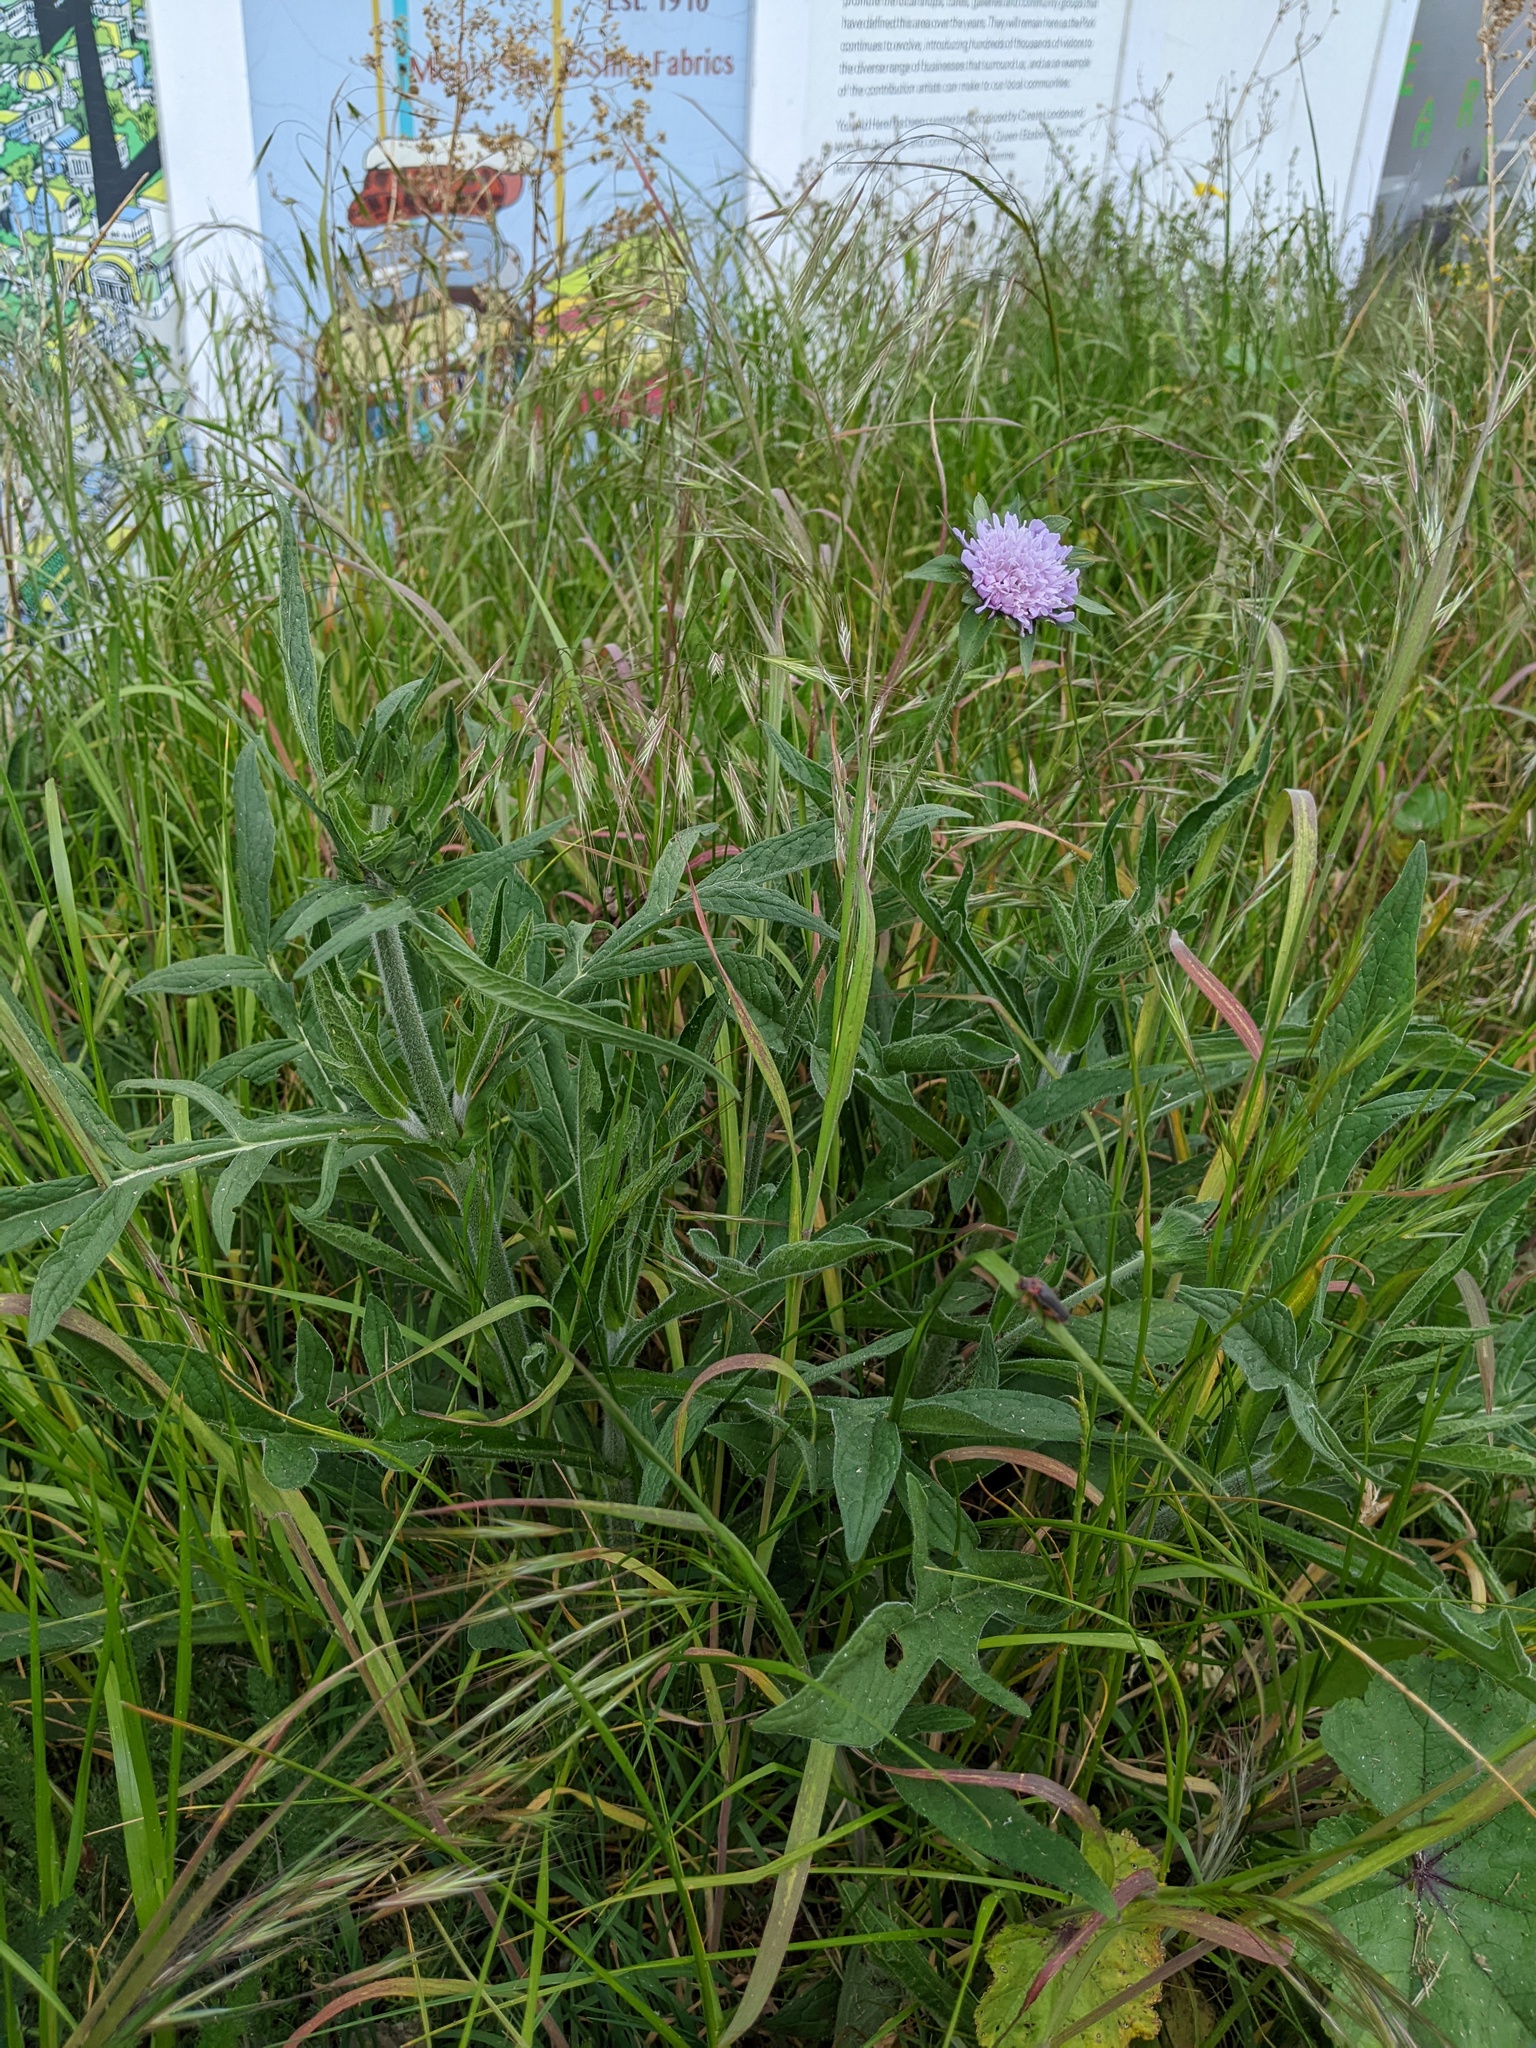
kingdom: Plantae
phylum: Tracheophyta
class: Magnoliopsida
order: Dipsacales
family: Caprifoliaceae
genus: Knautia
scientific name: Knautia arvensis
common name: Field scabiosa
